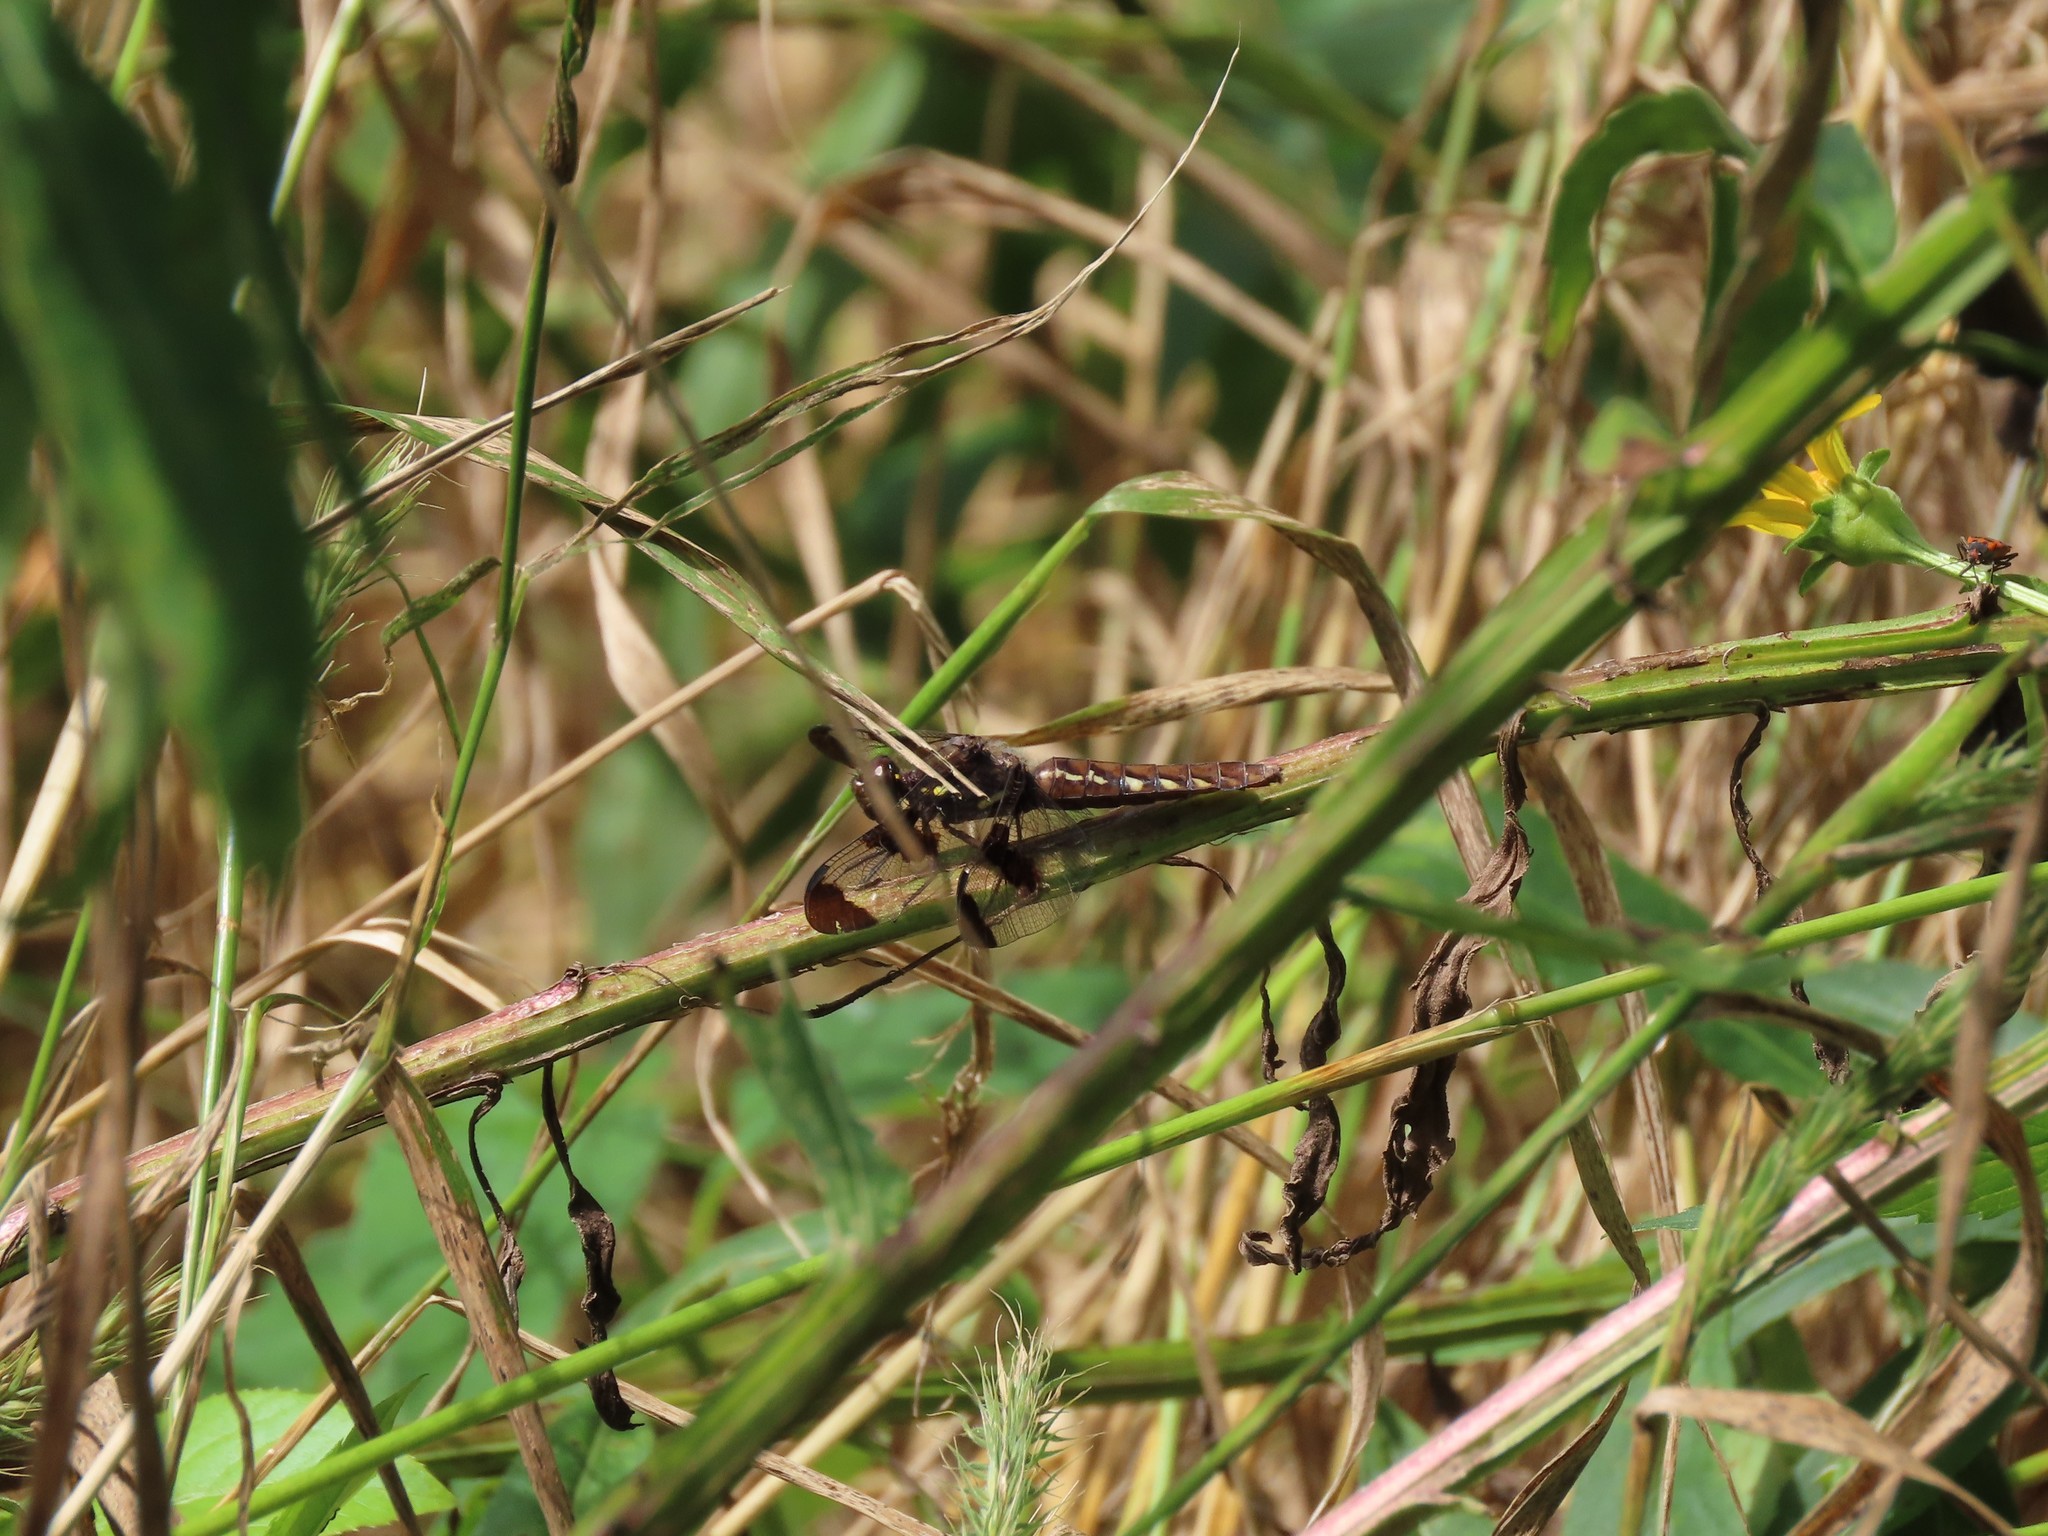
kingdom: Animalia
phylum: Arthropoda
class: Insecta
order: Odonata
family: Libellulidae
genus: Plathemis
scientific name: Plathemis lydia
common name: Common whitetail
